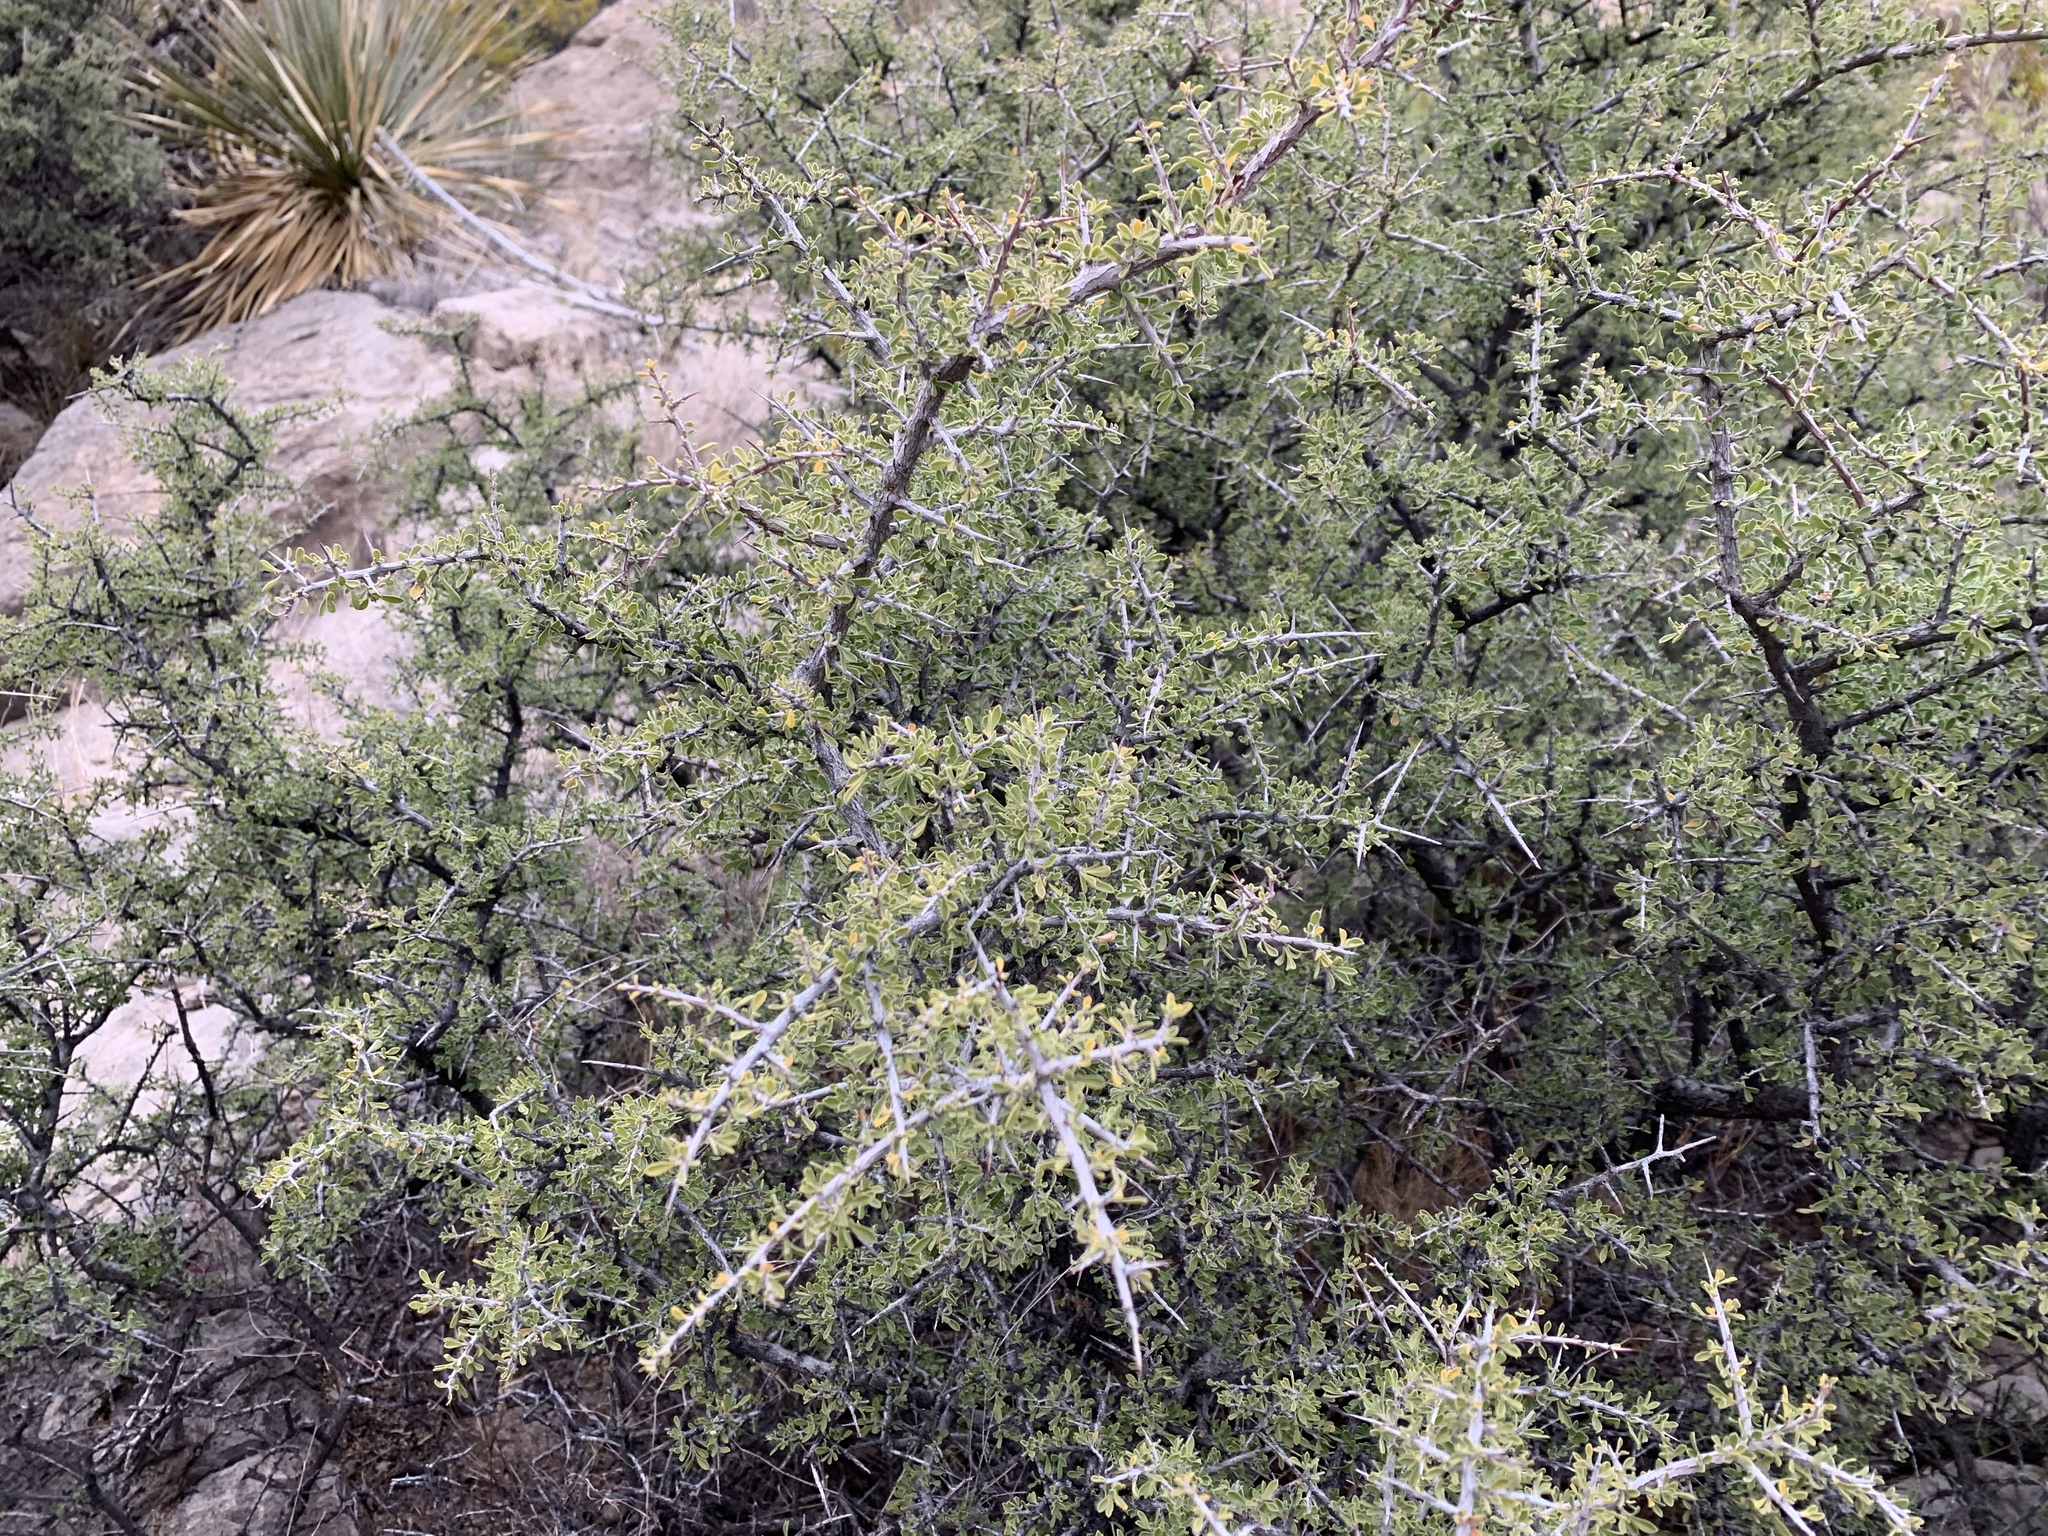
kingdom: Plantae
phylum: Tracheophyta
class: Magnoliopsida
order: Rosales
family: Rhamnaceae
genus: Condalia
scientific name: Condalia warnockii
